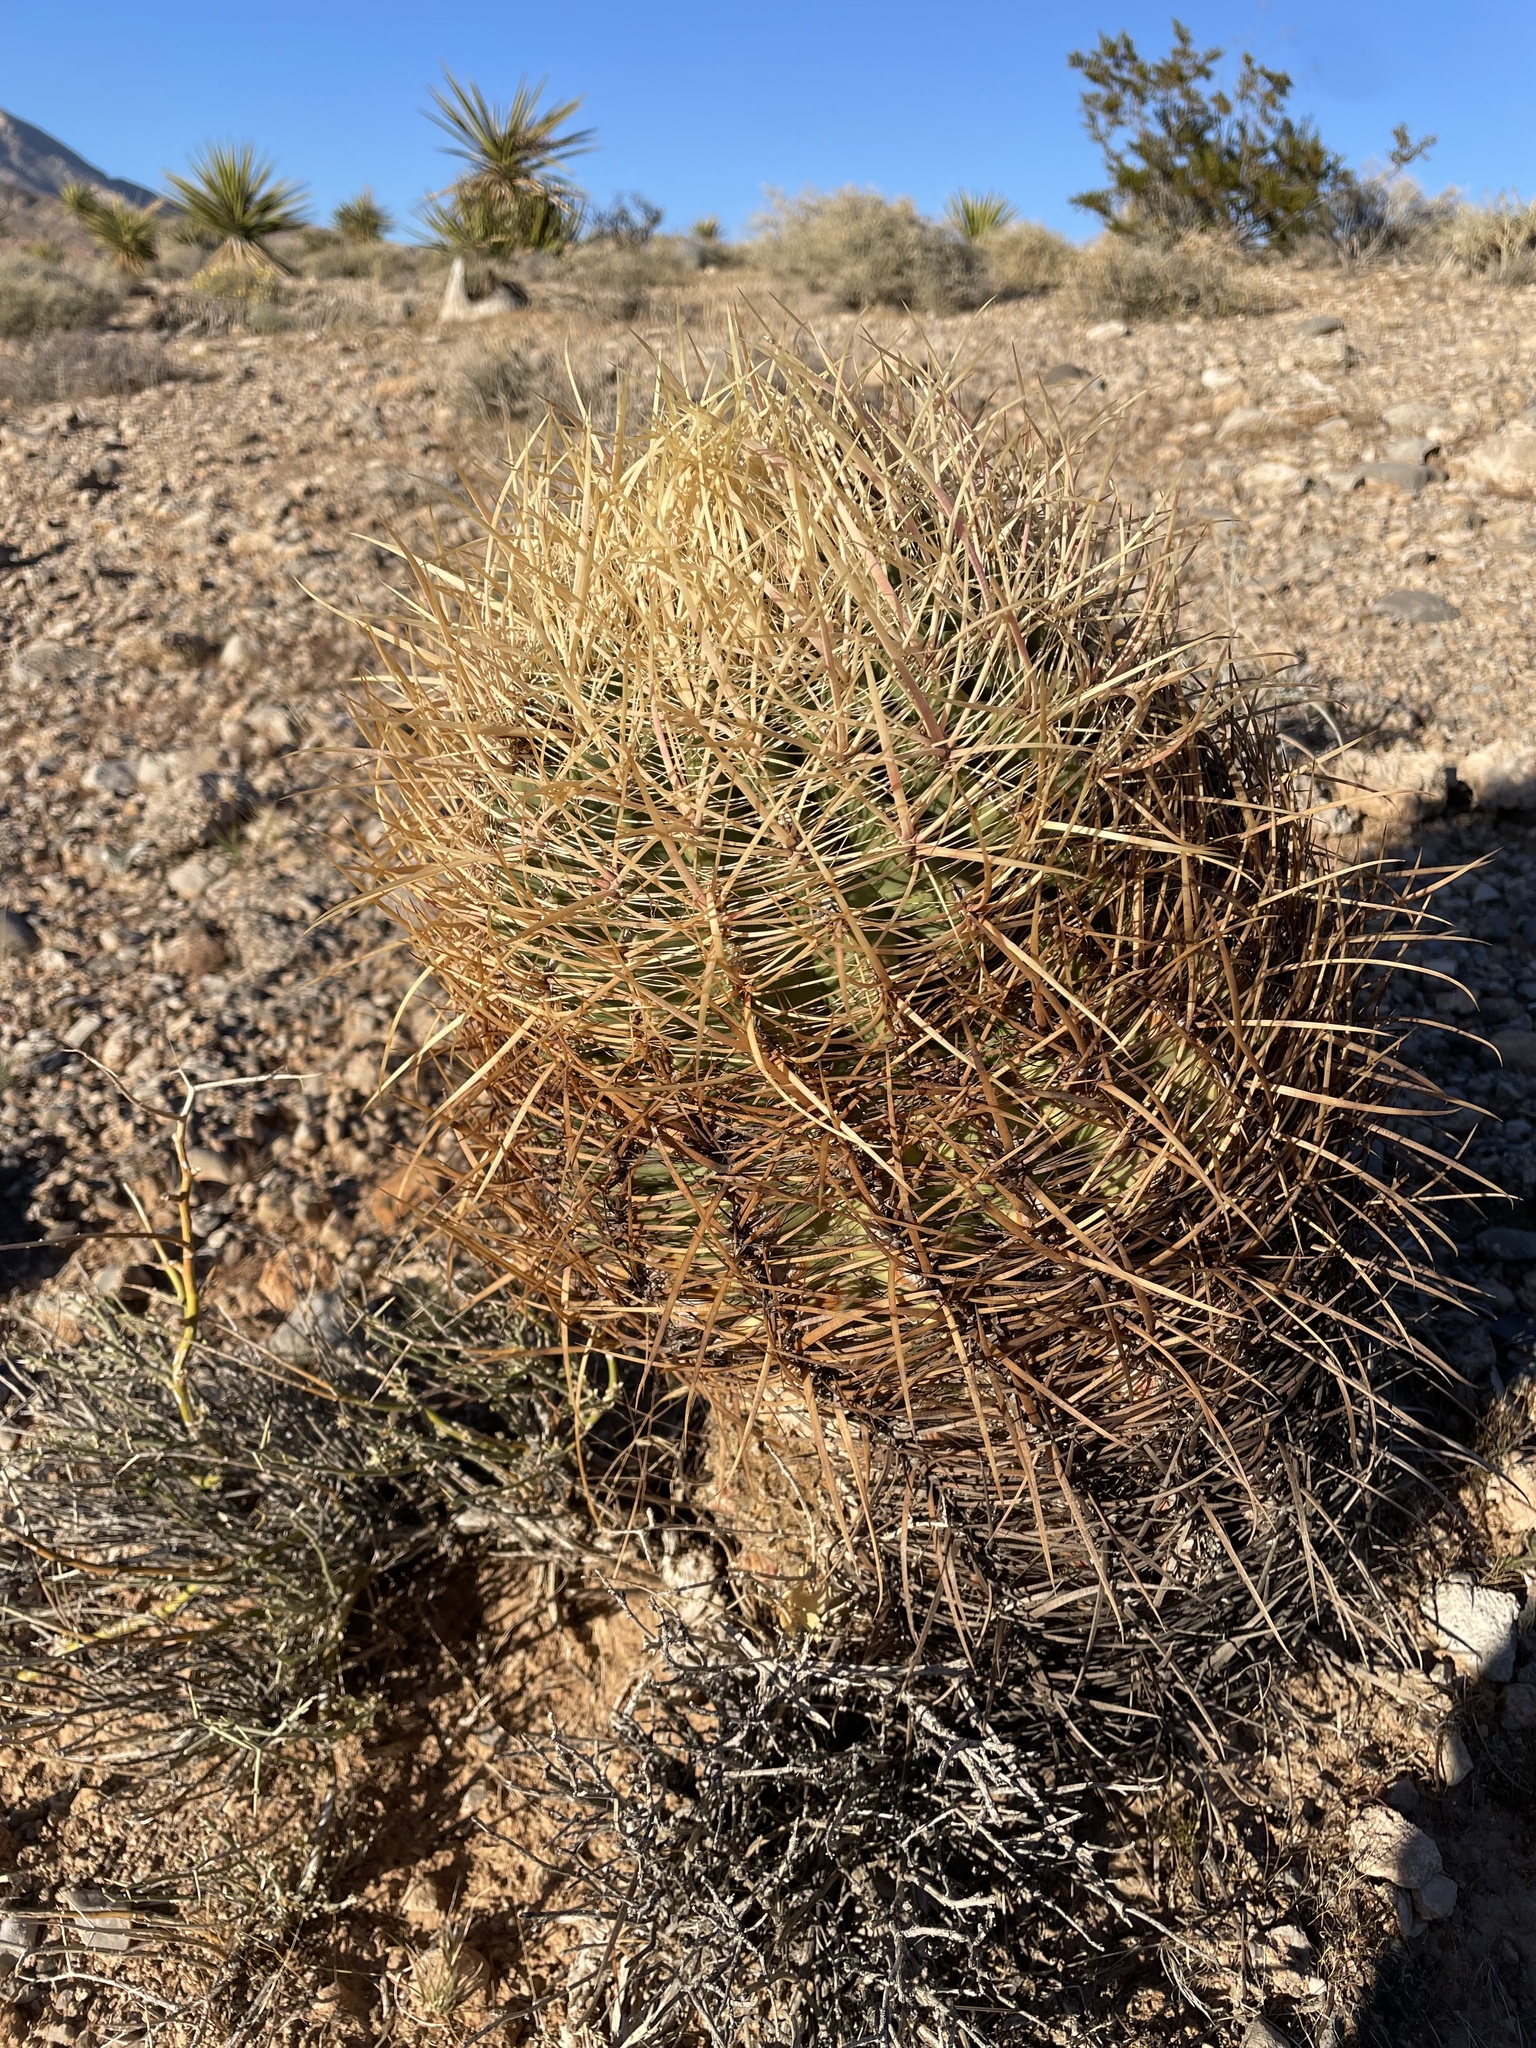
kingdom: Plantae
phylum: Tracheophyta
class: Magnoliopsida
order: Caryophyllales
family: Cactaceae
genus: Ferocactus
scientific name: Ferocactus cylindraceus
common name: California barrel cactus
